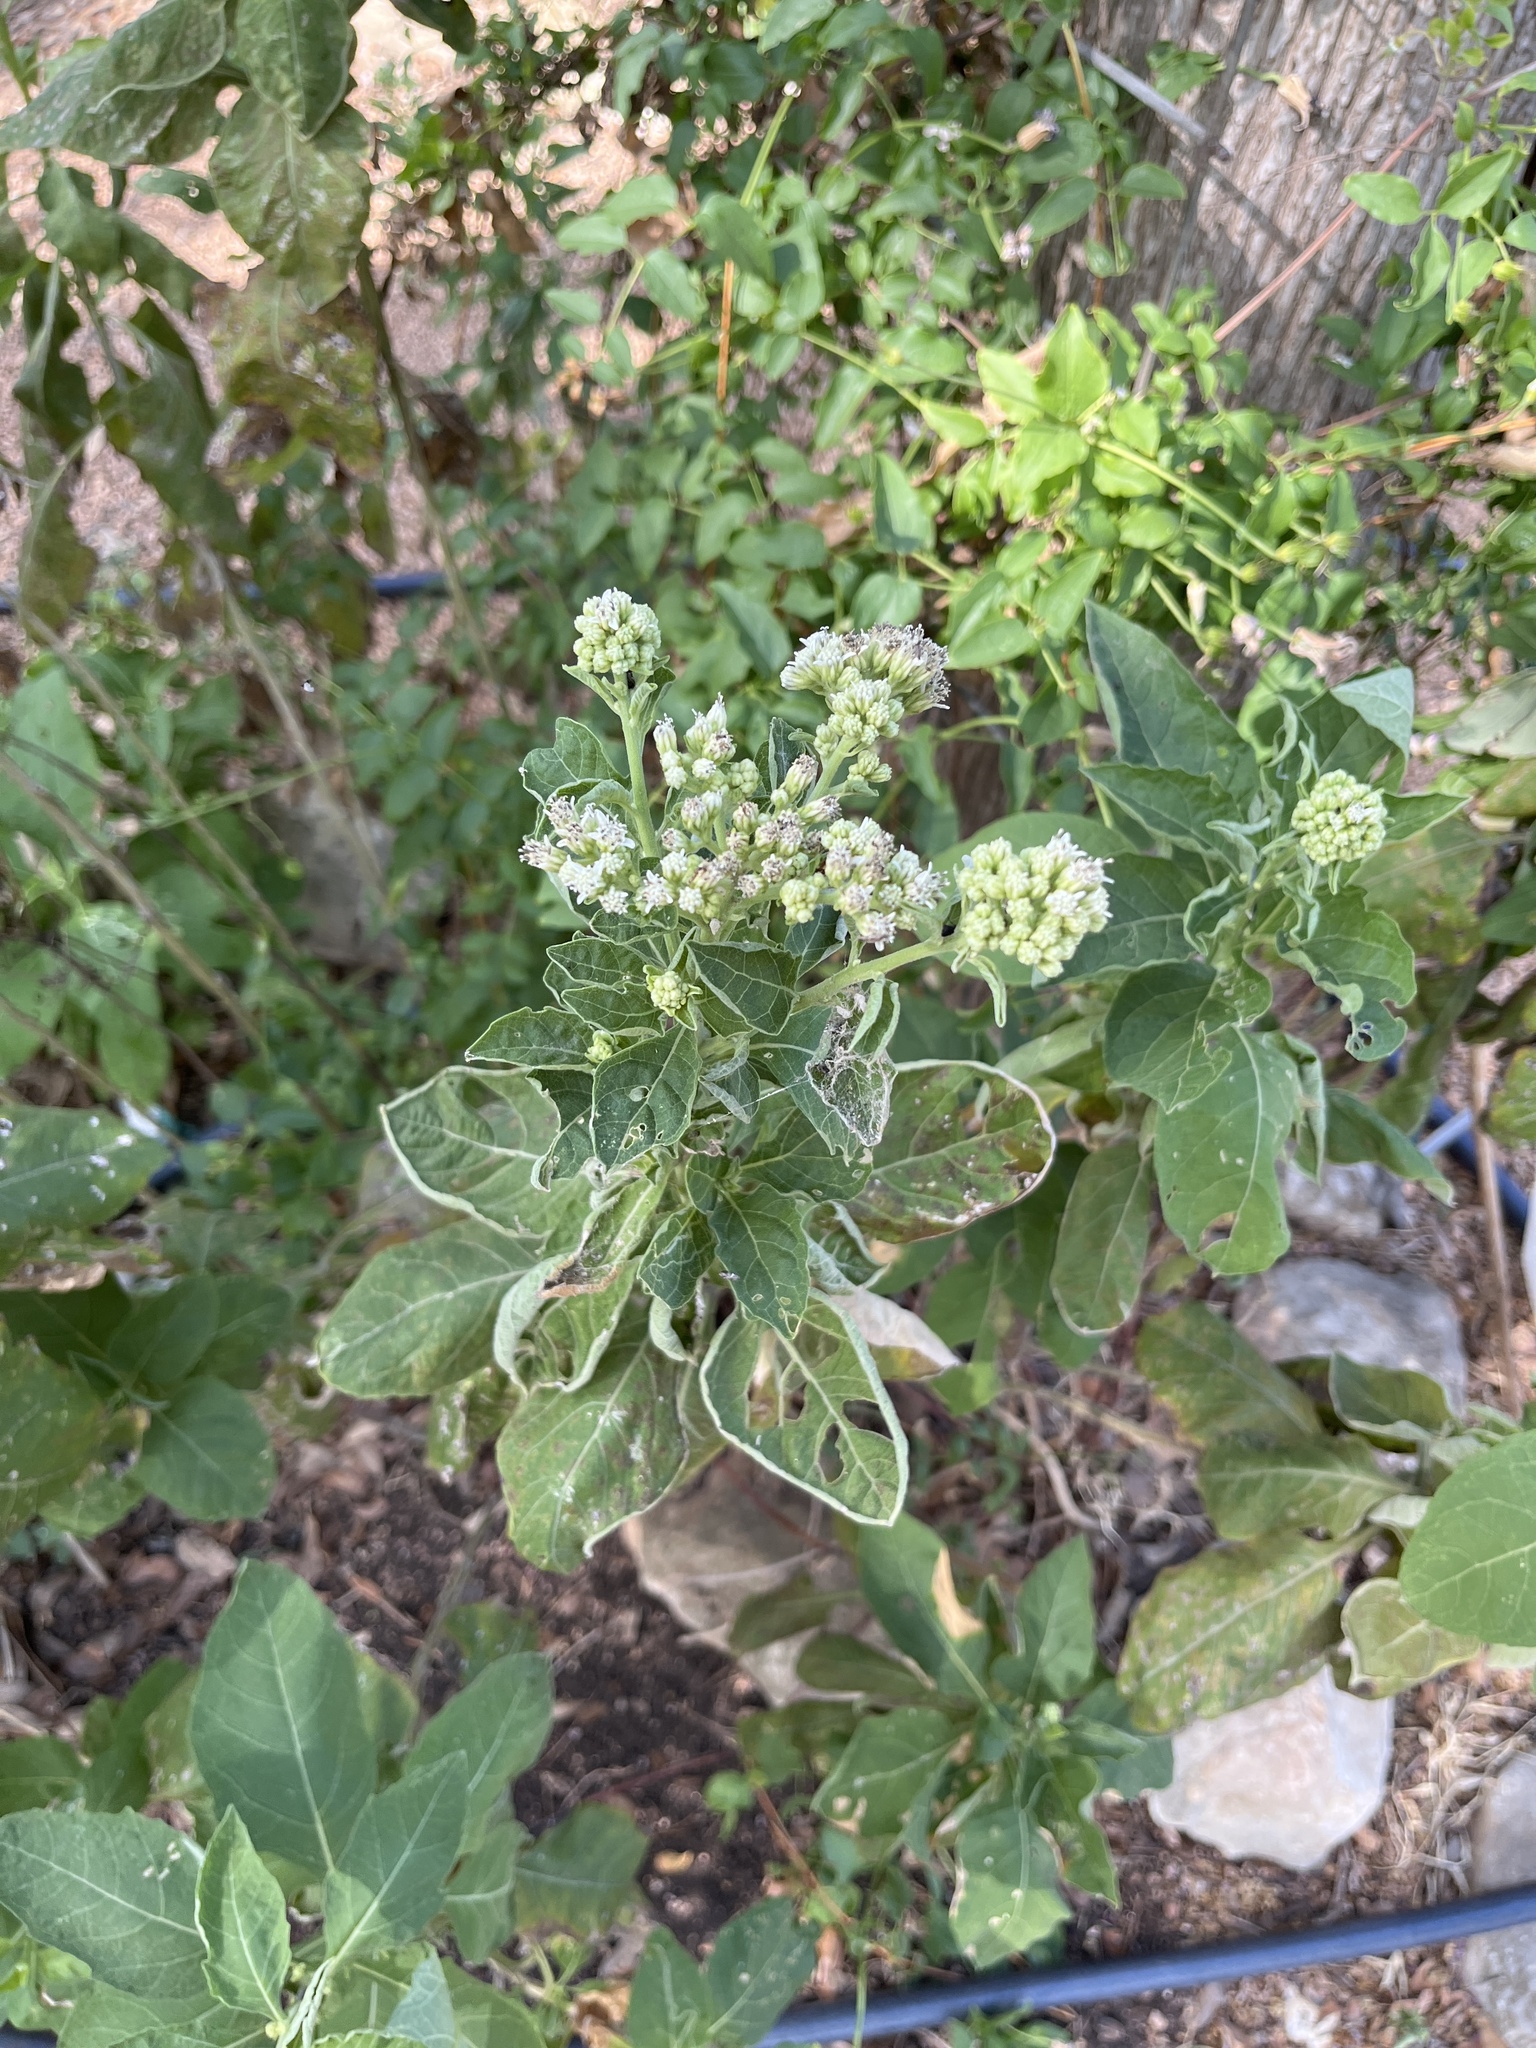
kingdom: Plantae
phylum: Tracheophyta
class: Magnoliopsida
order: Asterales
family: Asteraceae
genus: Verbesina
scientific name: Verbesina virginica
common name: Frostweed
